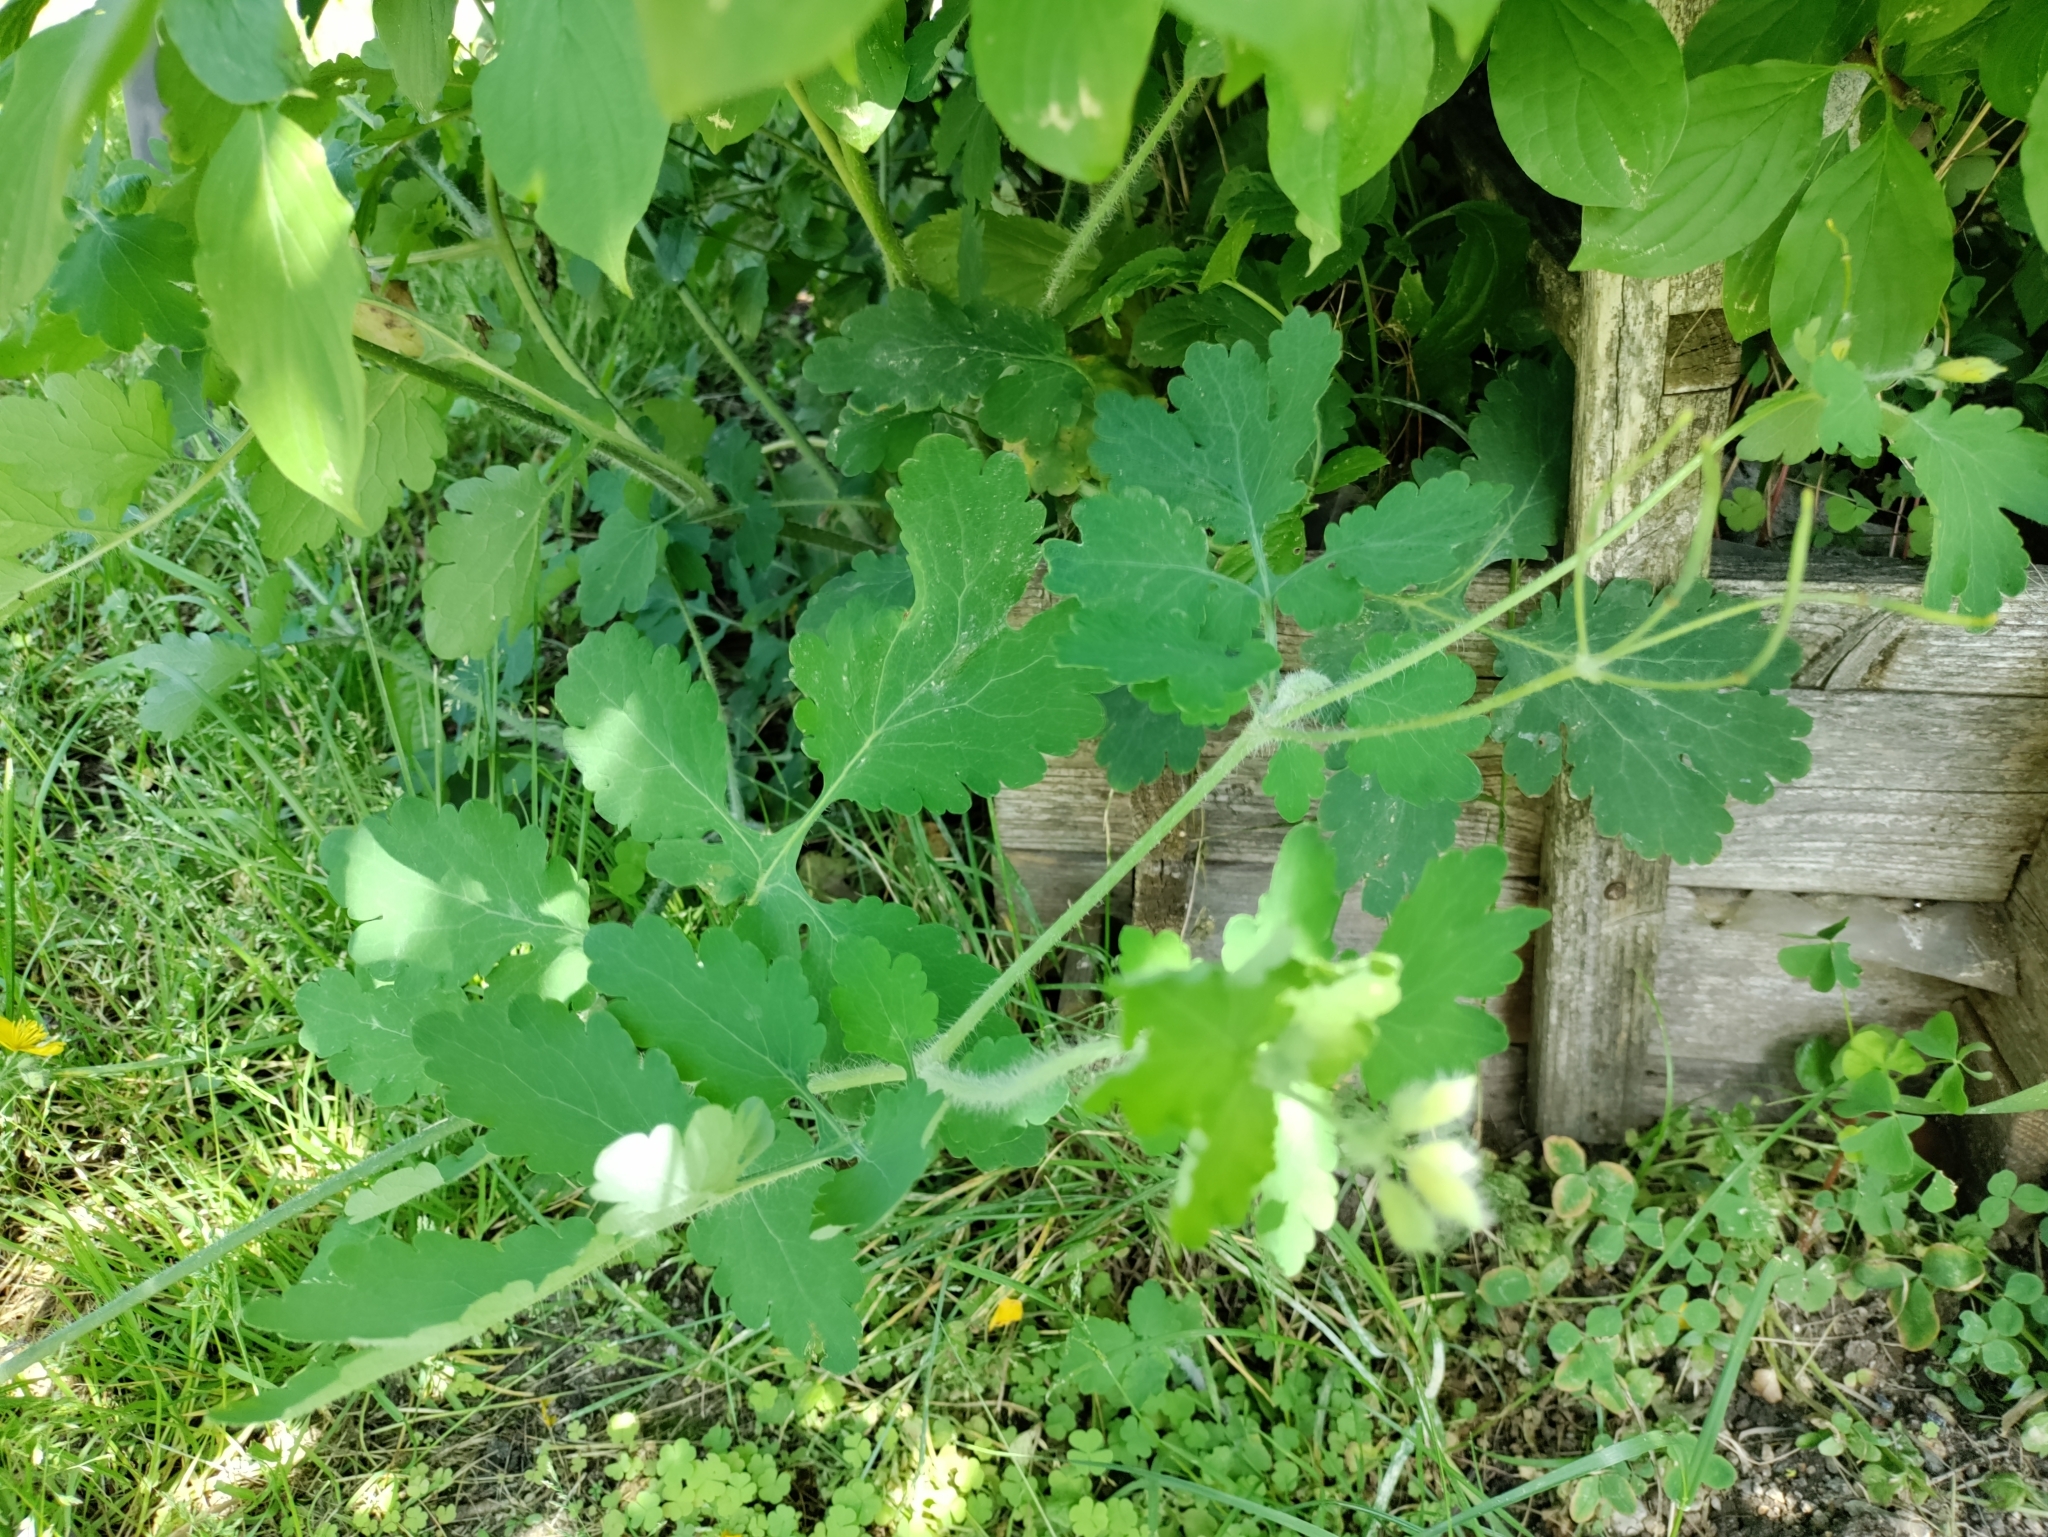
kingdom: Plantae
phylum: Tracheophyta
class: Magnoliopsida
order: Ranunculales
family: Papaveraceae
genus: Chelidonium
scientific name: Chelidonium majus
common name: Greater celandine
